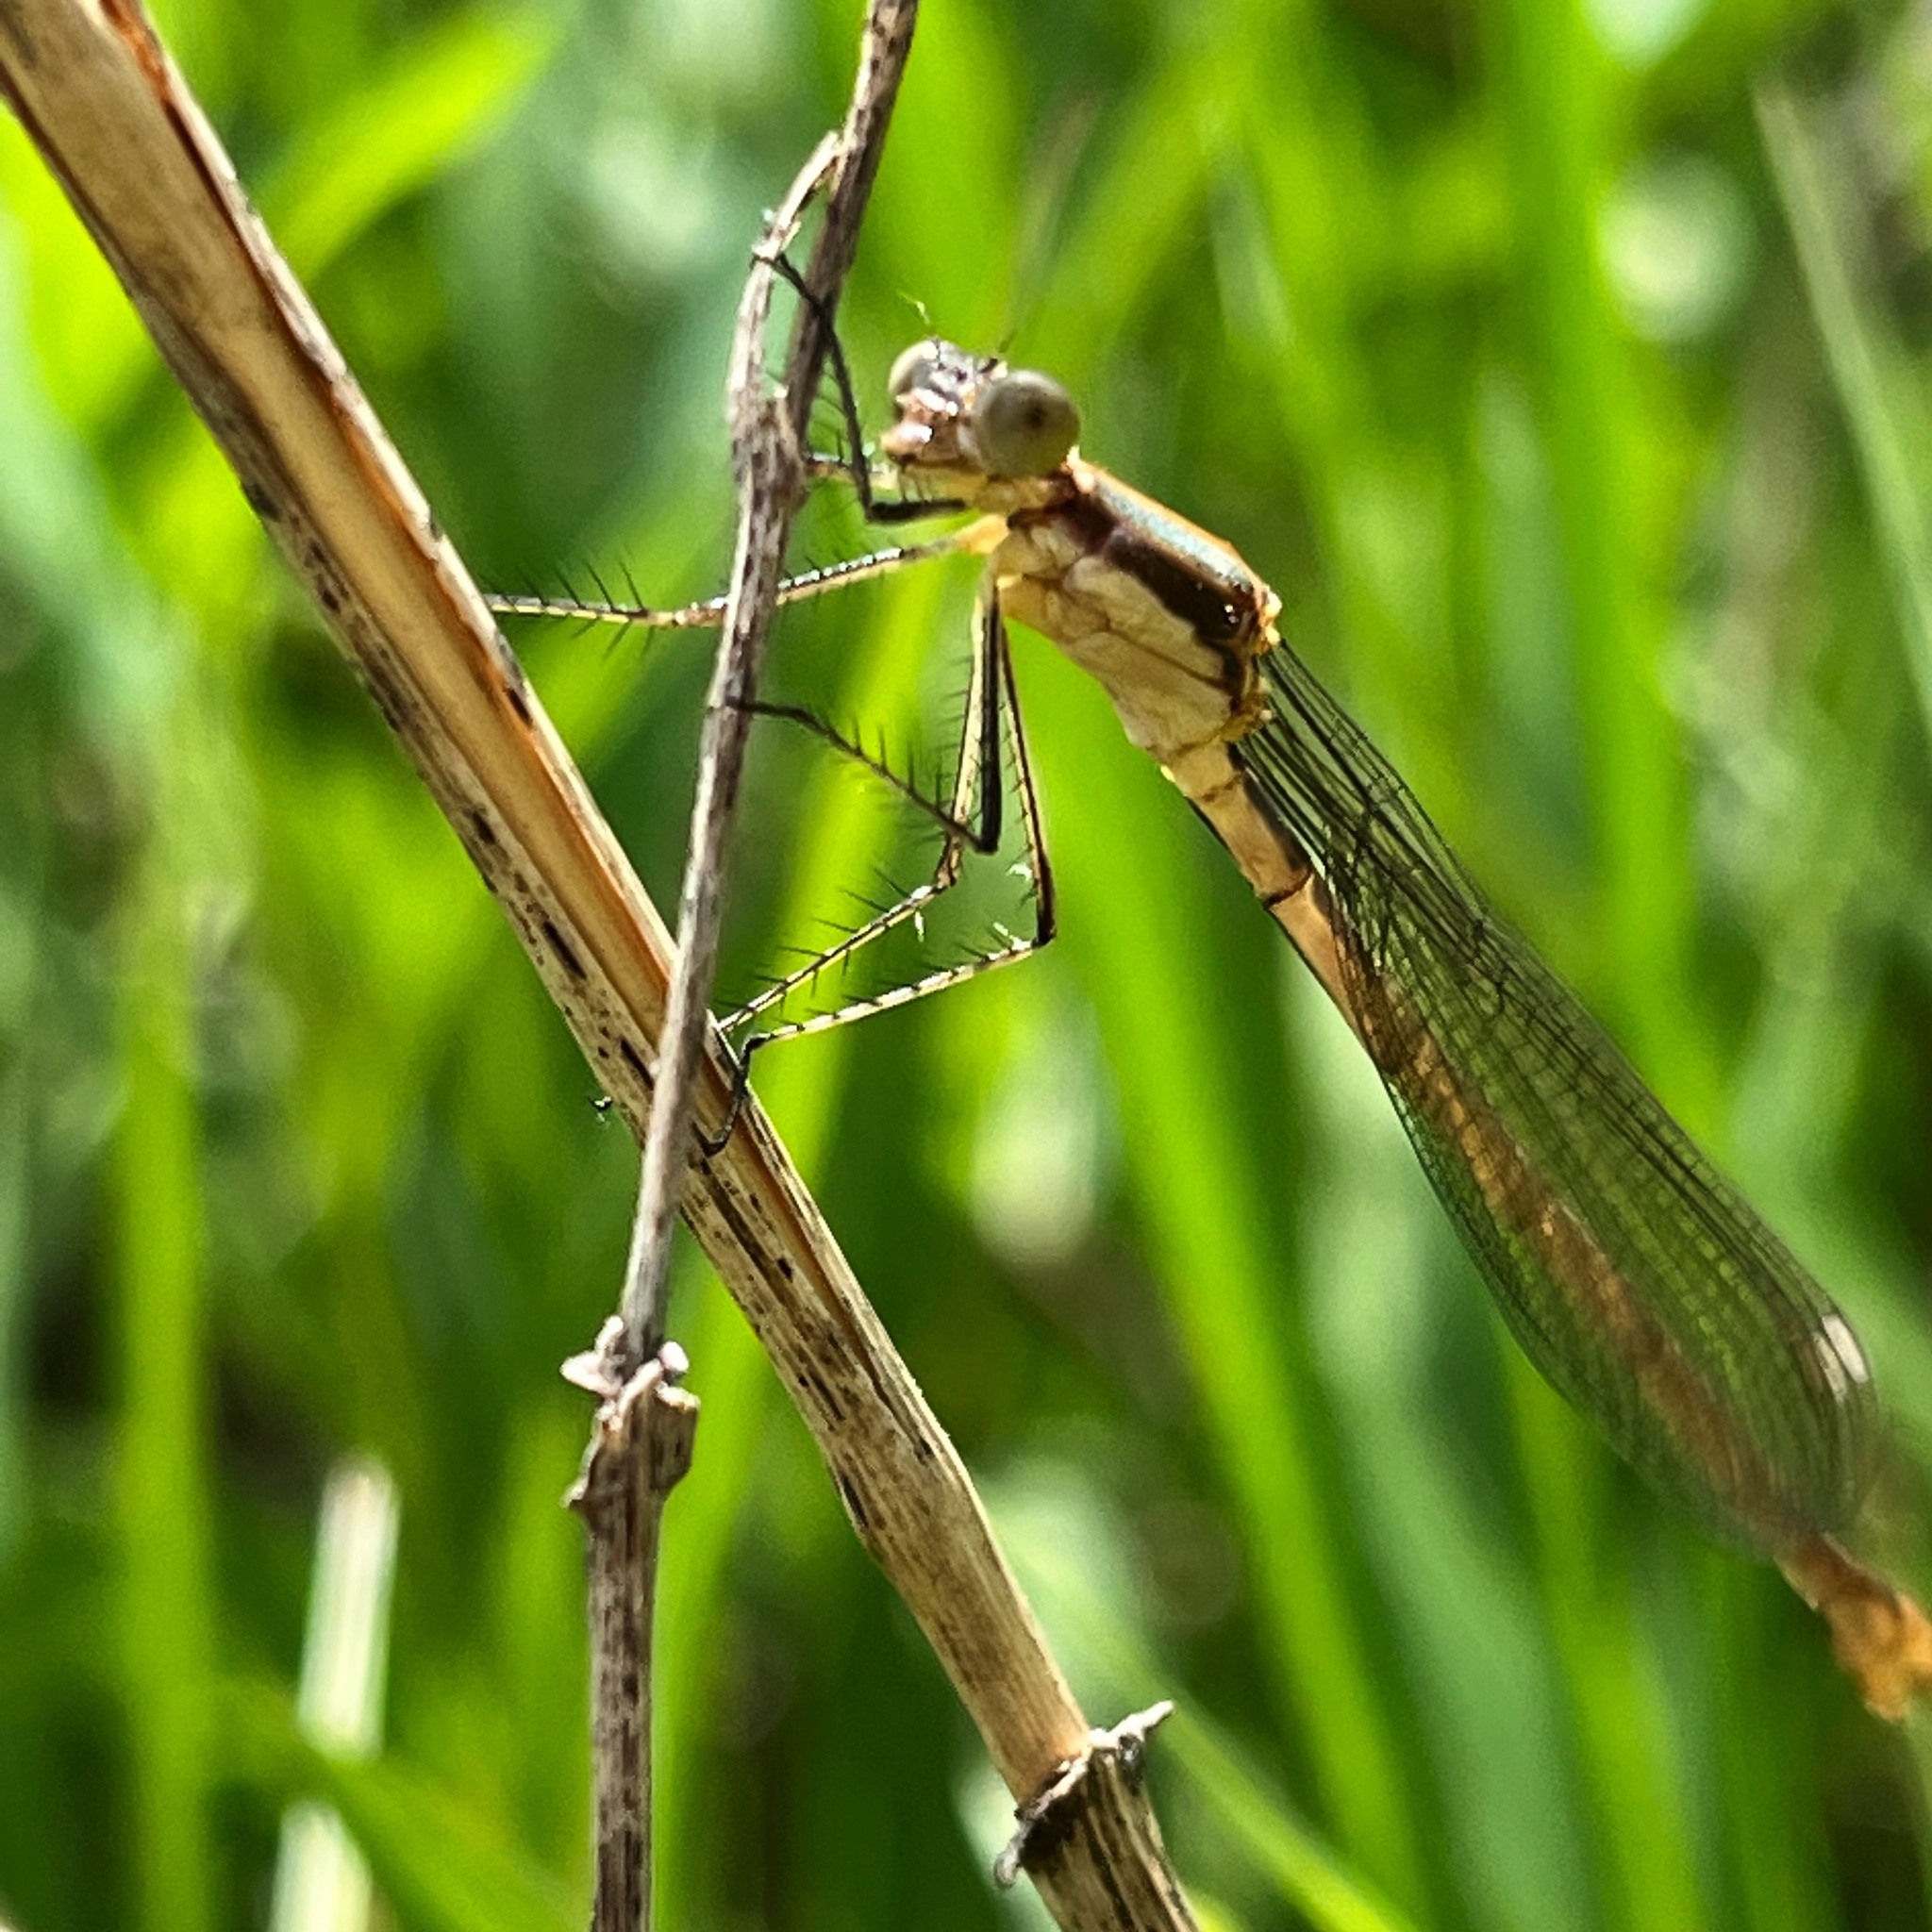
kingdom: Animalia
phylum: Arthropoda
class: Insecta
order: Odonata
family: Lestidae
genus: Lestes
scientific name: Lestes inaequalis
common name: Elegant spreadwing
